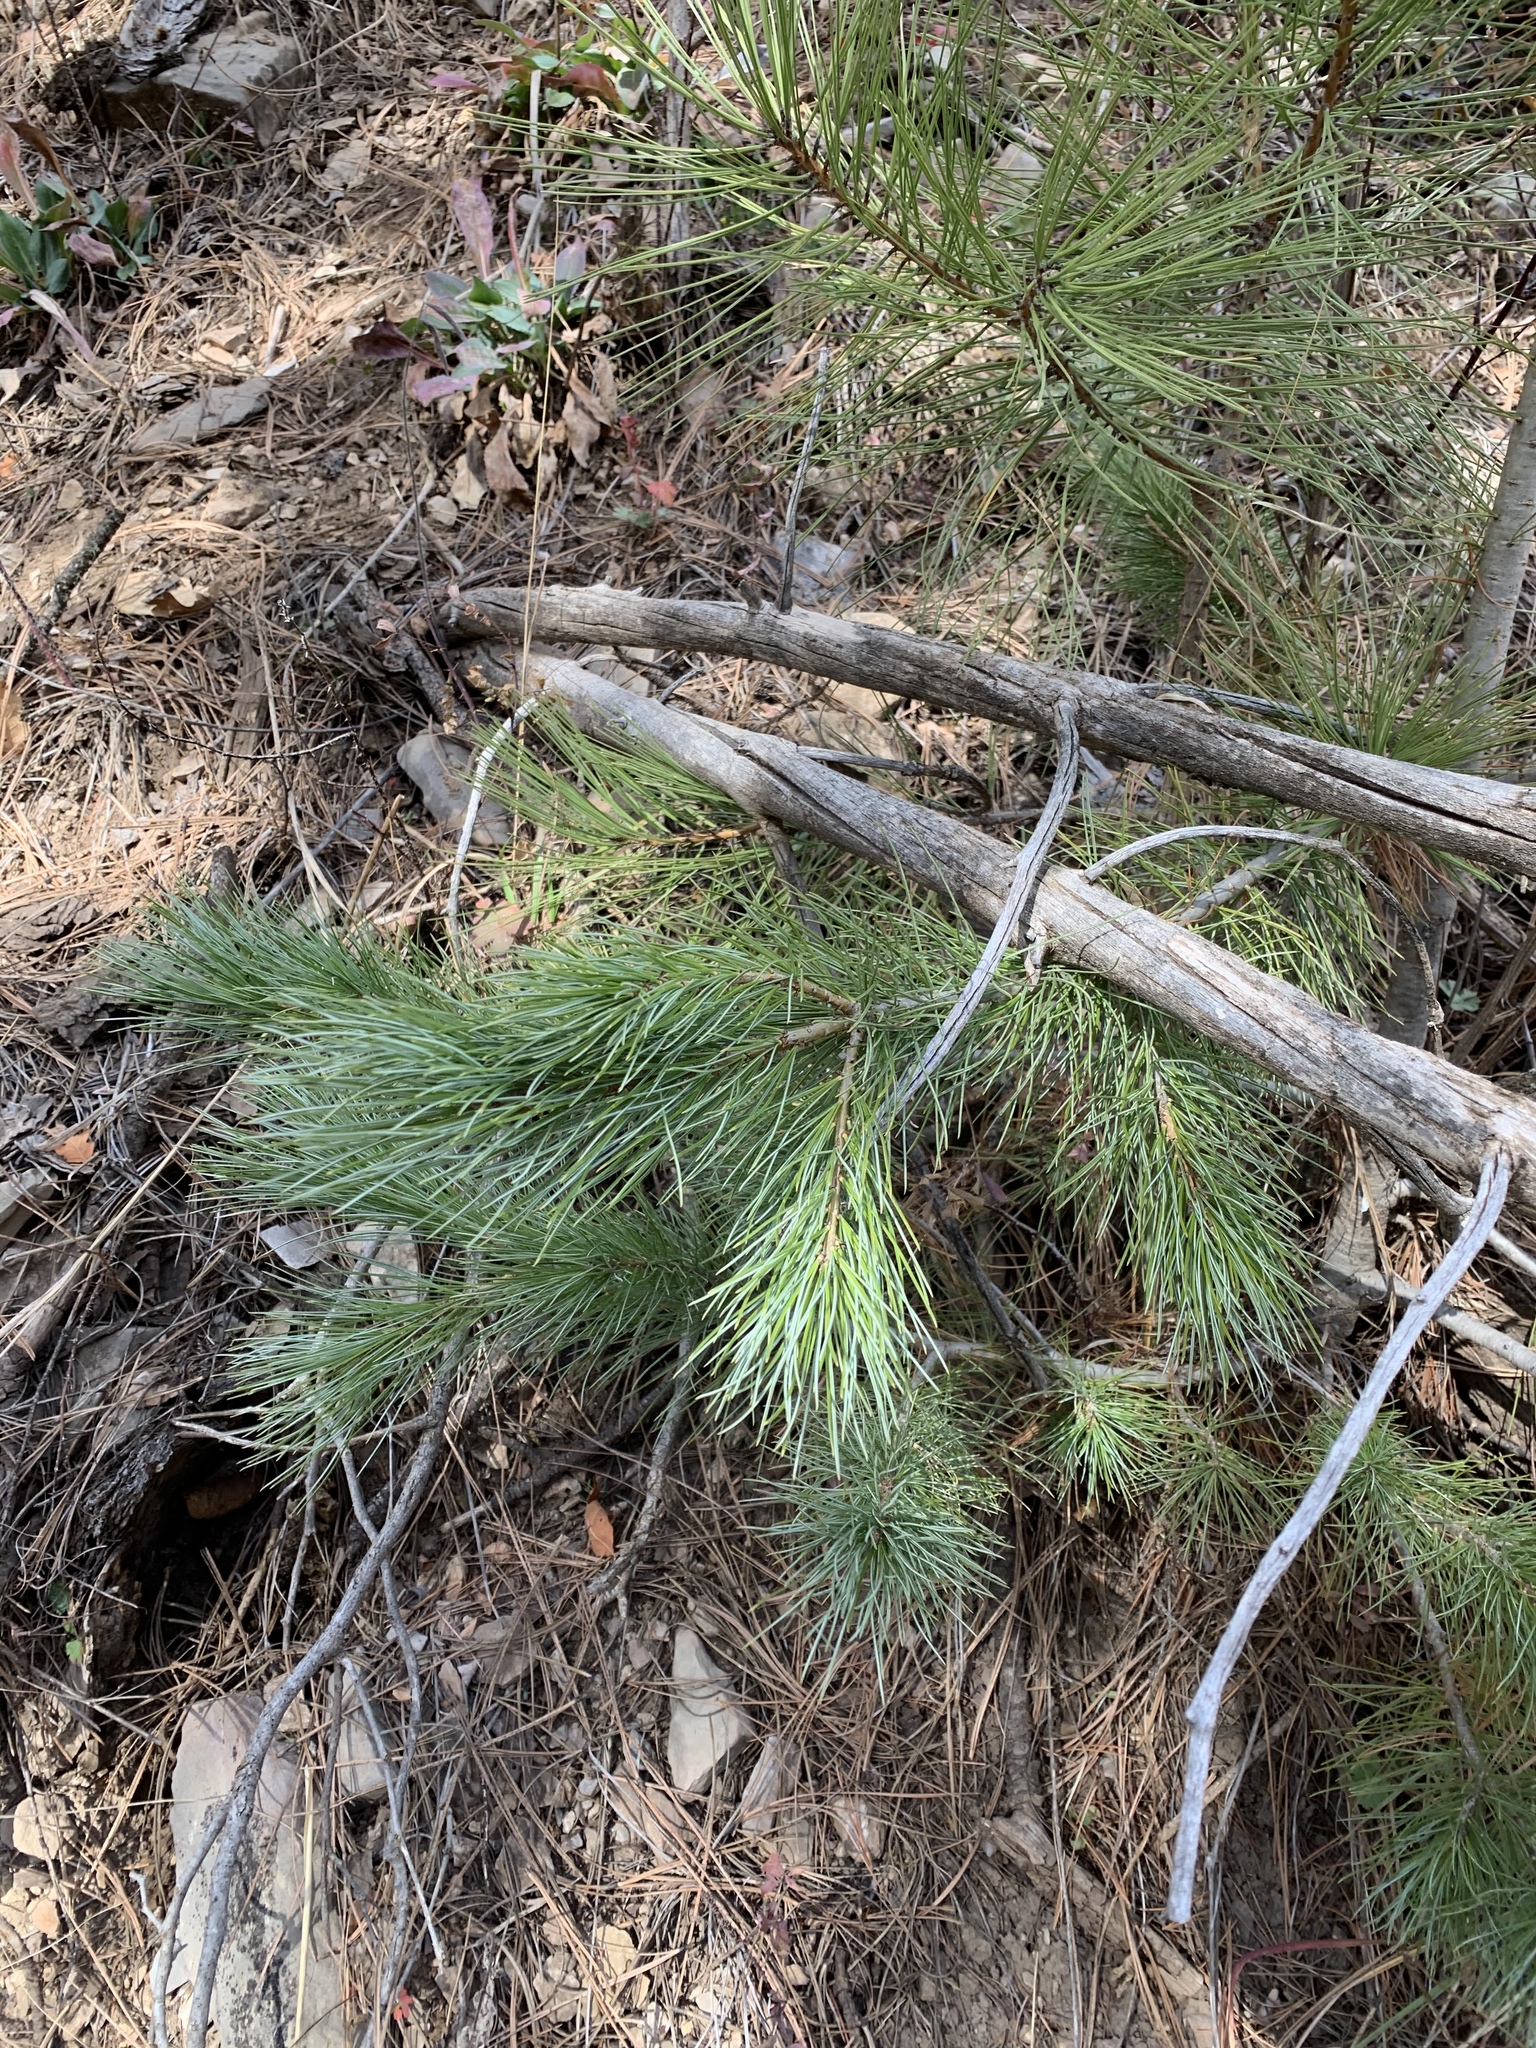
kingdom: Plantae
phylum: Tracheophyta
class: Pinopsida
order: Pinales
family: Pinaceae
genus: Pinus
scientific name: Pinus strobiformis
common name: Southwestern white pine
